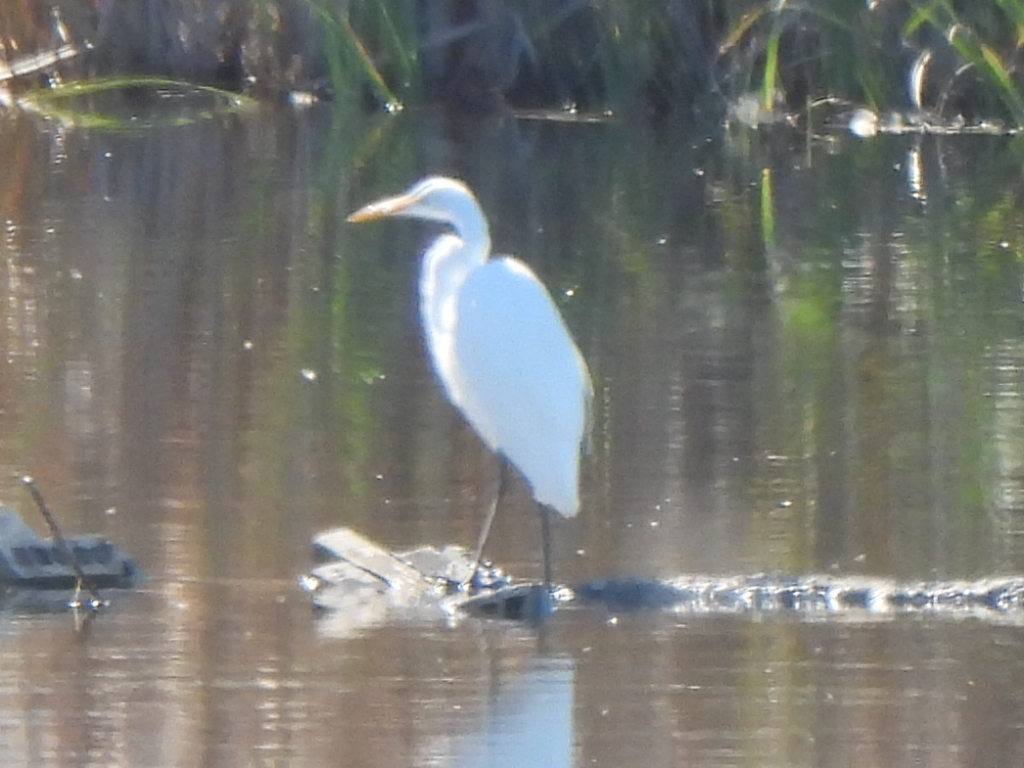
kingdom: Animalia
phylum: Chordata
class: Aves
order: Pelecaniformes
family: Ardeidae
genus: Ardea
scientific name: Ardea alba
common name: Great egret
